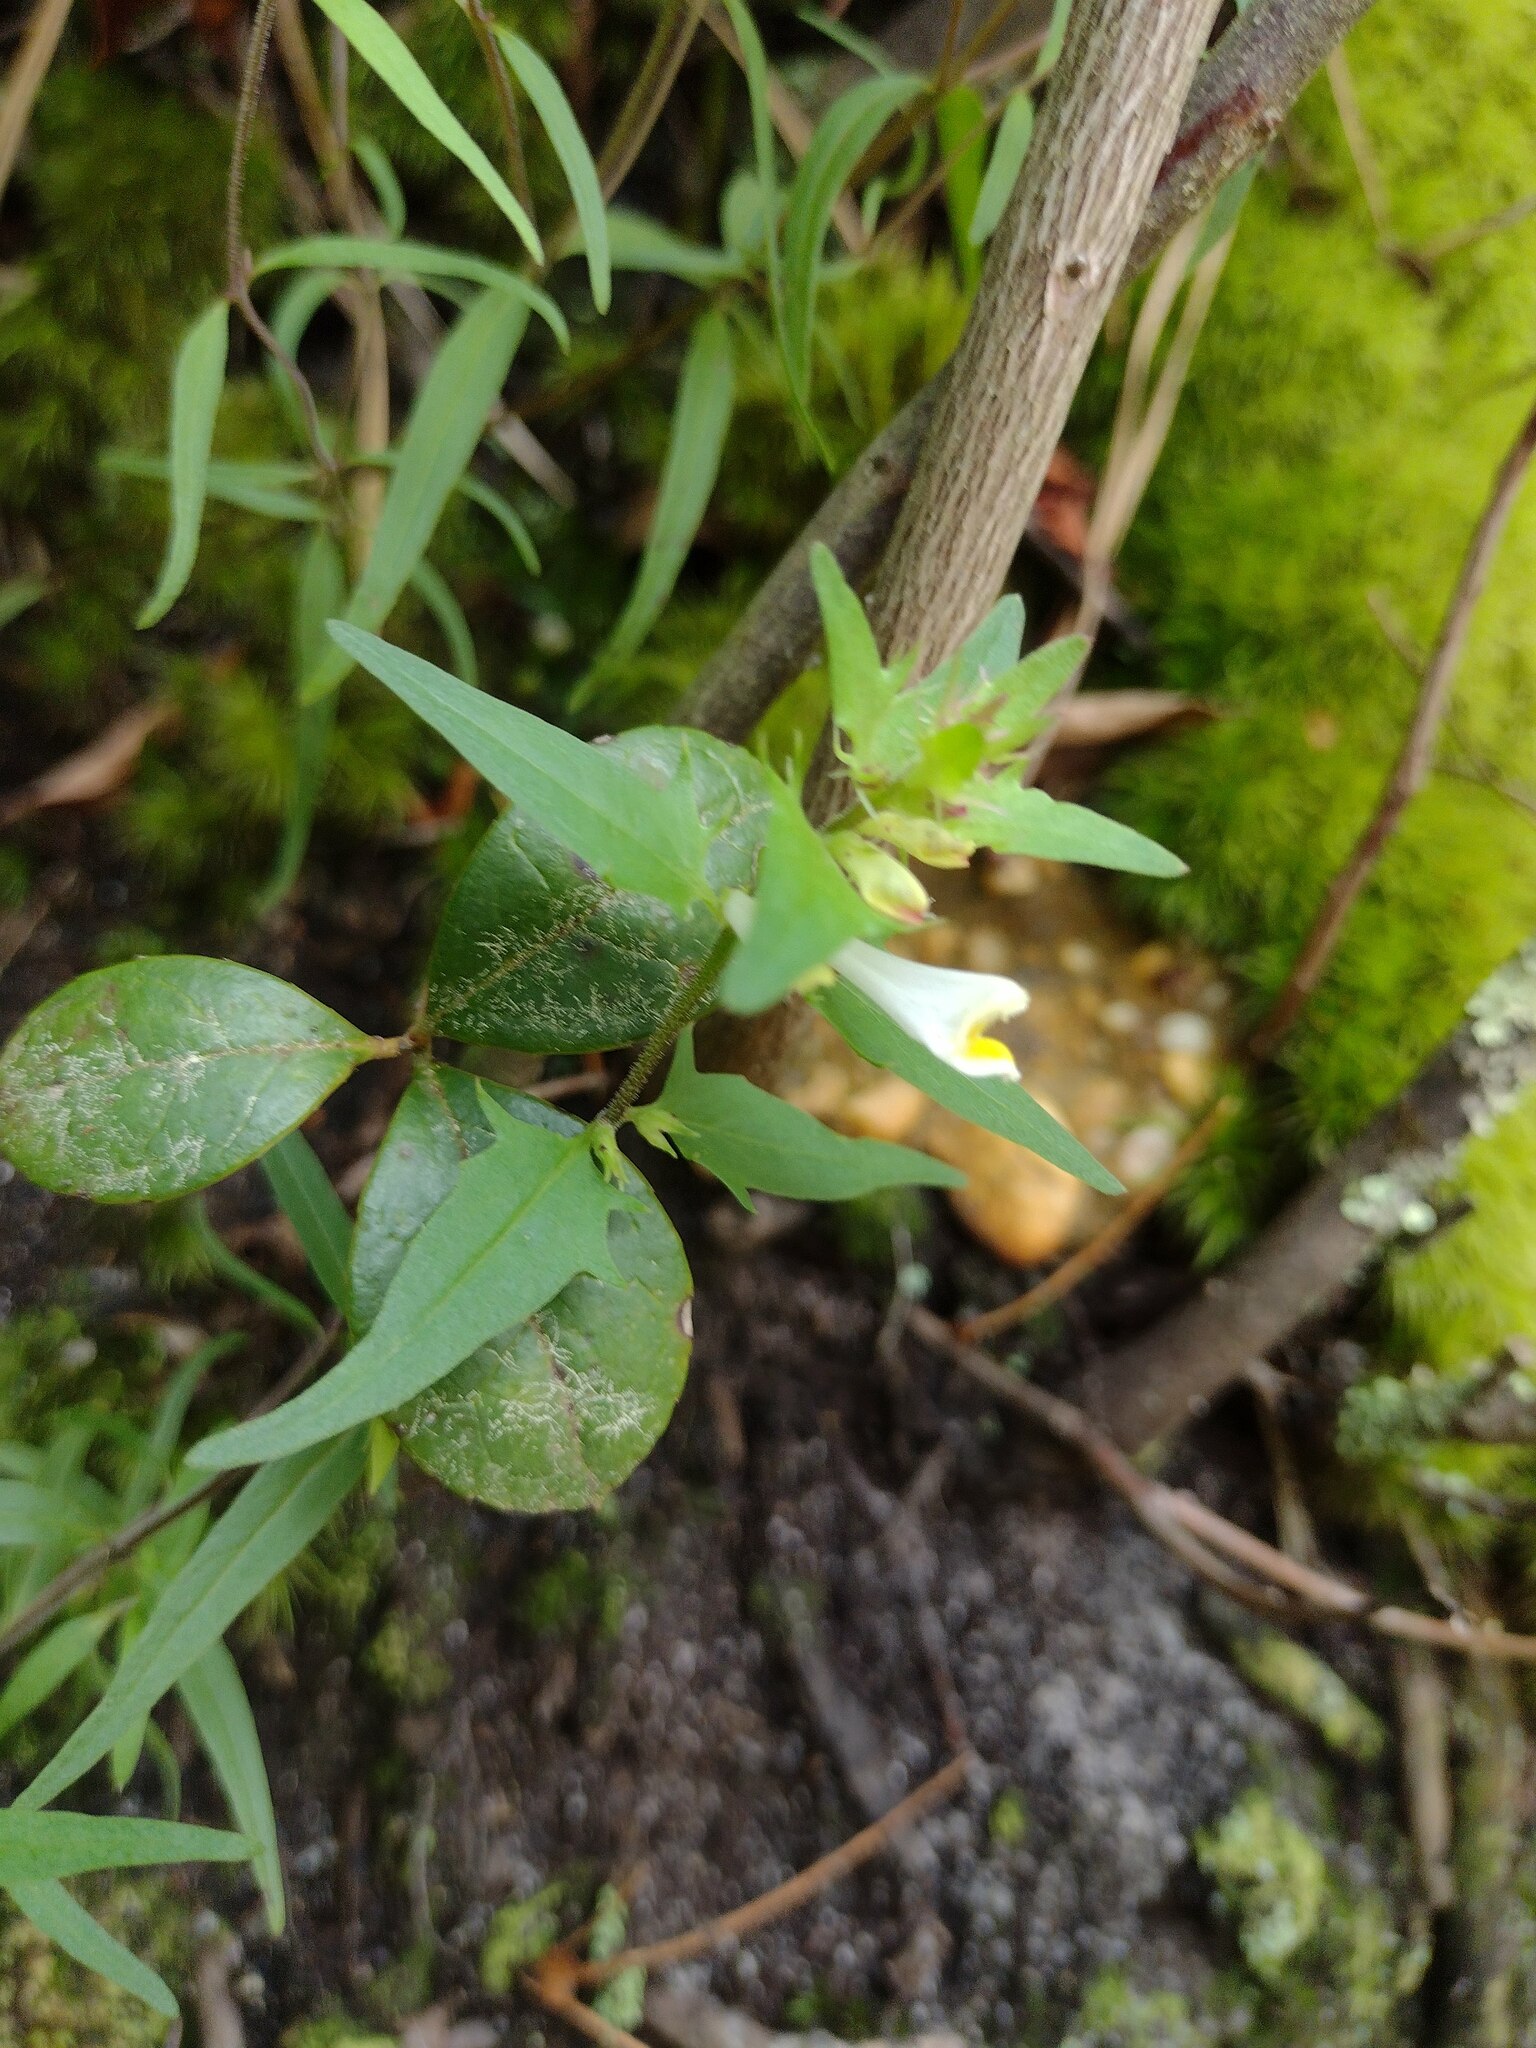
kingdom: Plantae
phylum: Tracheophyta
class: Magnoliopsida
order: Lamiales
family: Orobanchaceae
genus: Melampyrum
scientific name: Melampyrum lineare
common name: American cow-wheat
